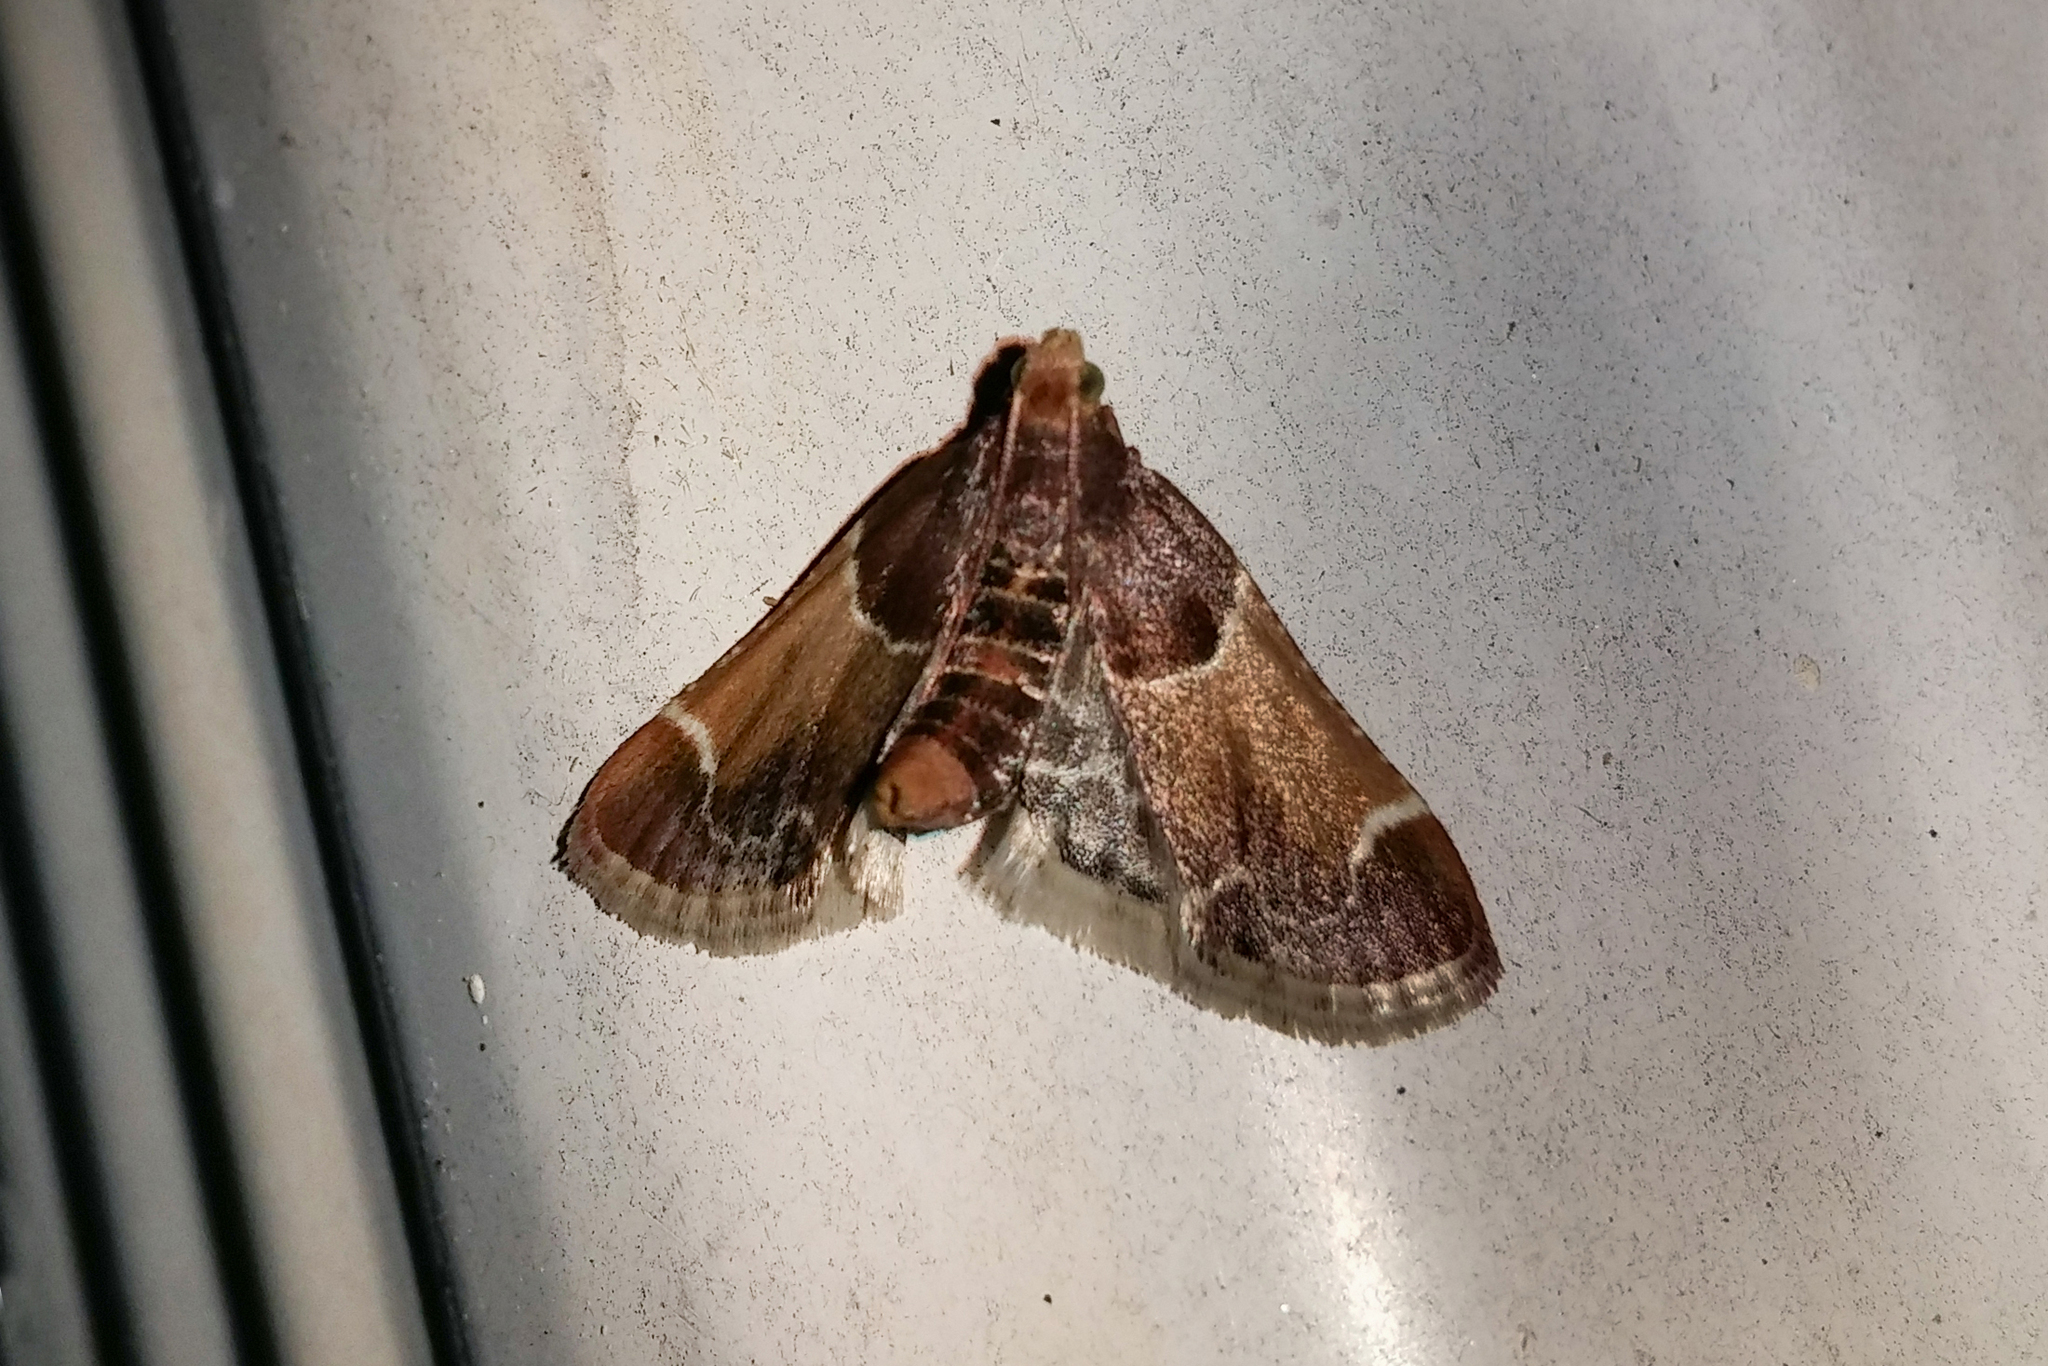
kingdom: Animalia
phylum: Arthropoda
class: Insecta
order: Lepidoptera
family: Pyralidae
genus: Pyralis
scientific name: Pyralis farinalis
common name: Meal moth
